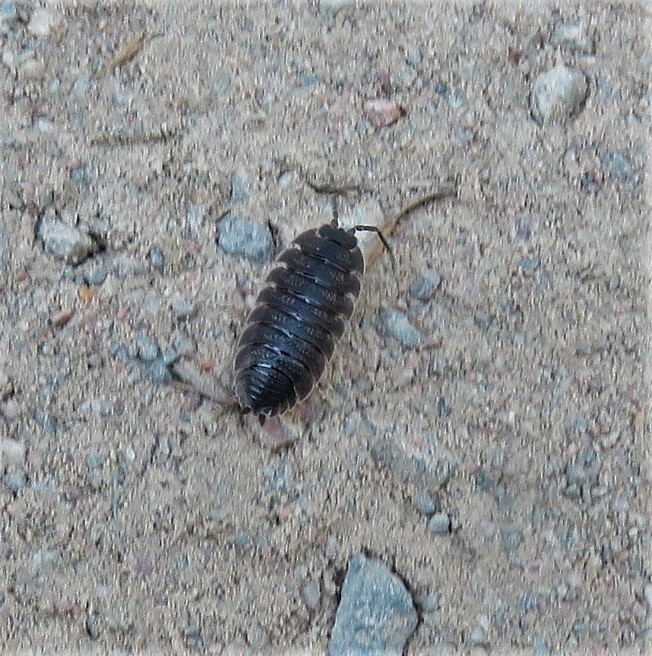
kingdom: Animalia
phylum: Arthropoda
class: Malacostraca
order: Isopoda
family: Porcellionidae
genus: Porcellio
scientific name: Porcellio scaber
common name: Common rough woodlouse
